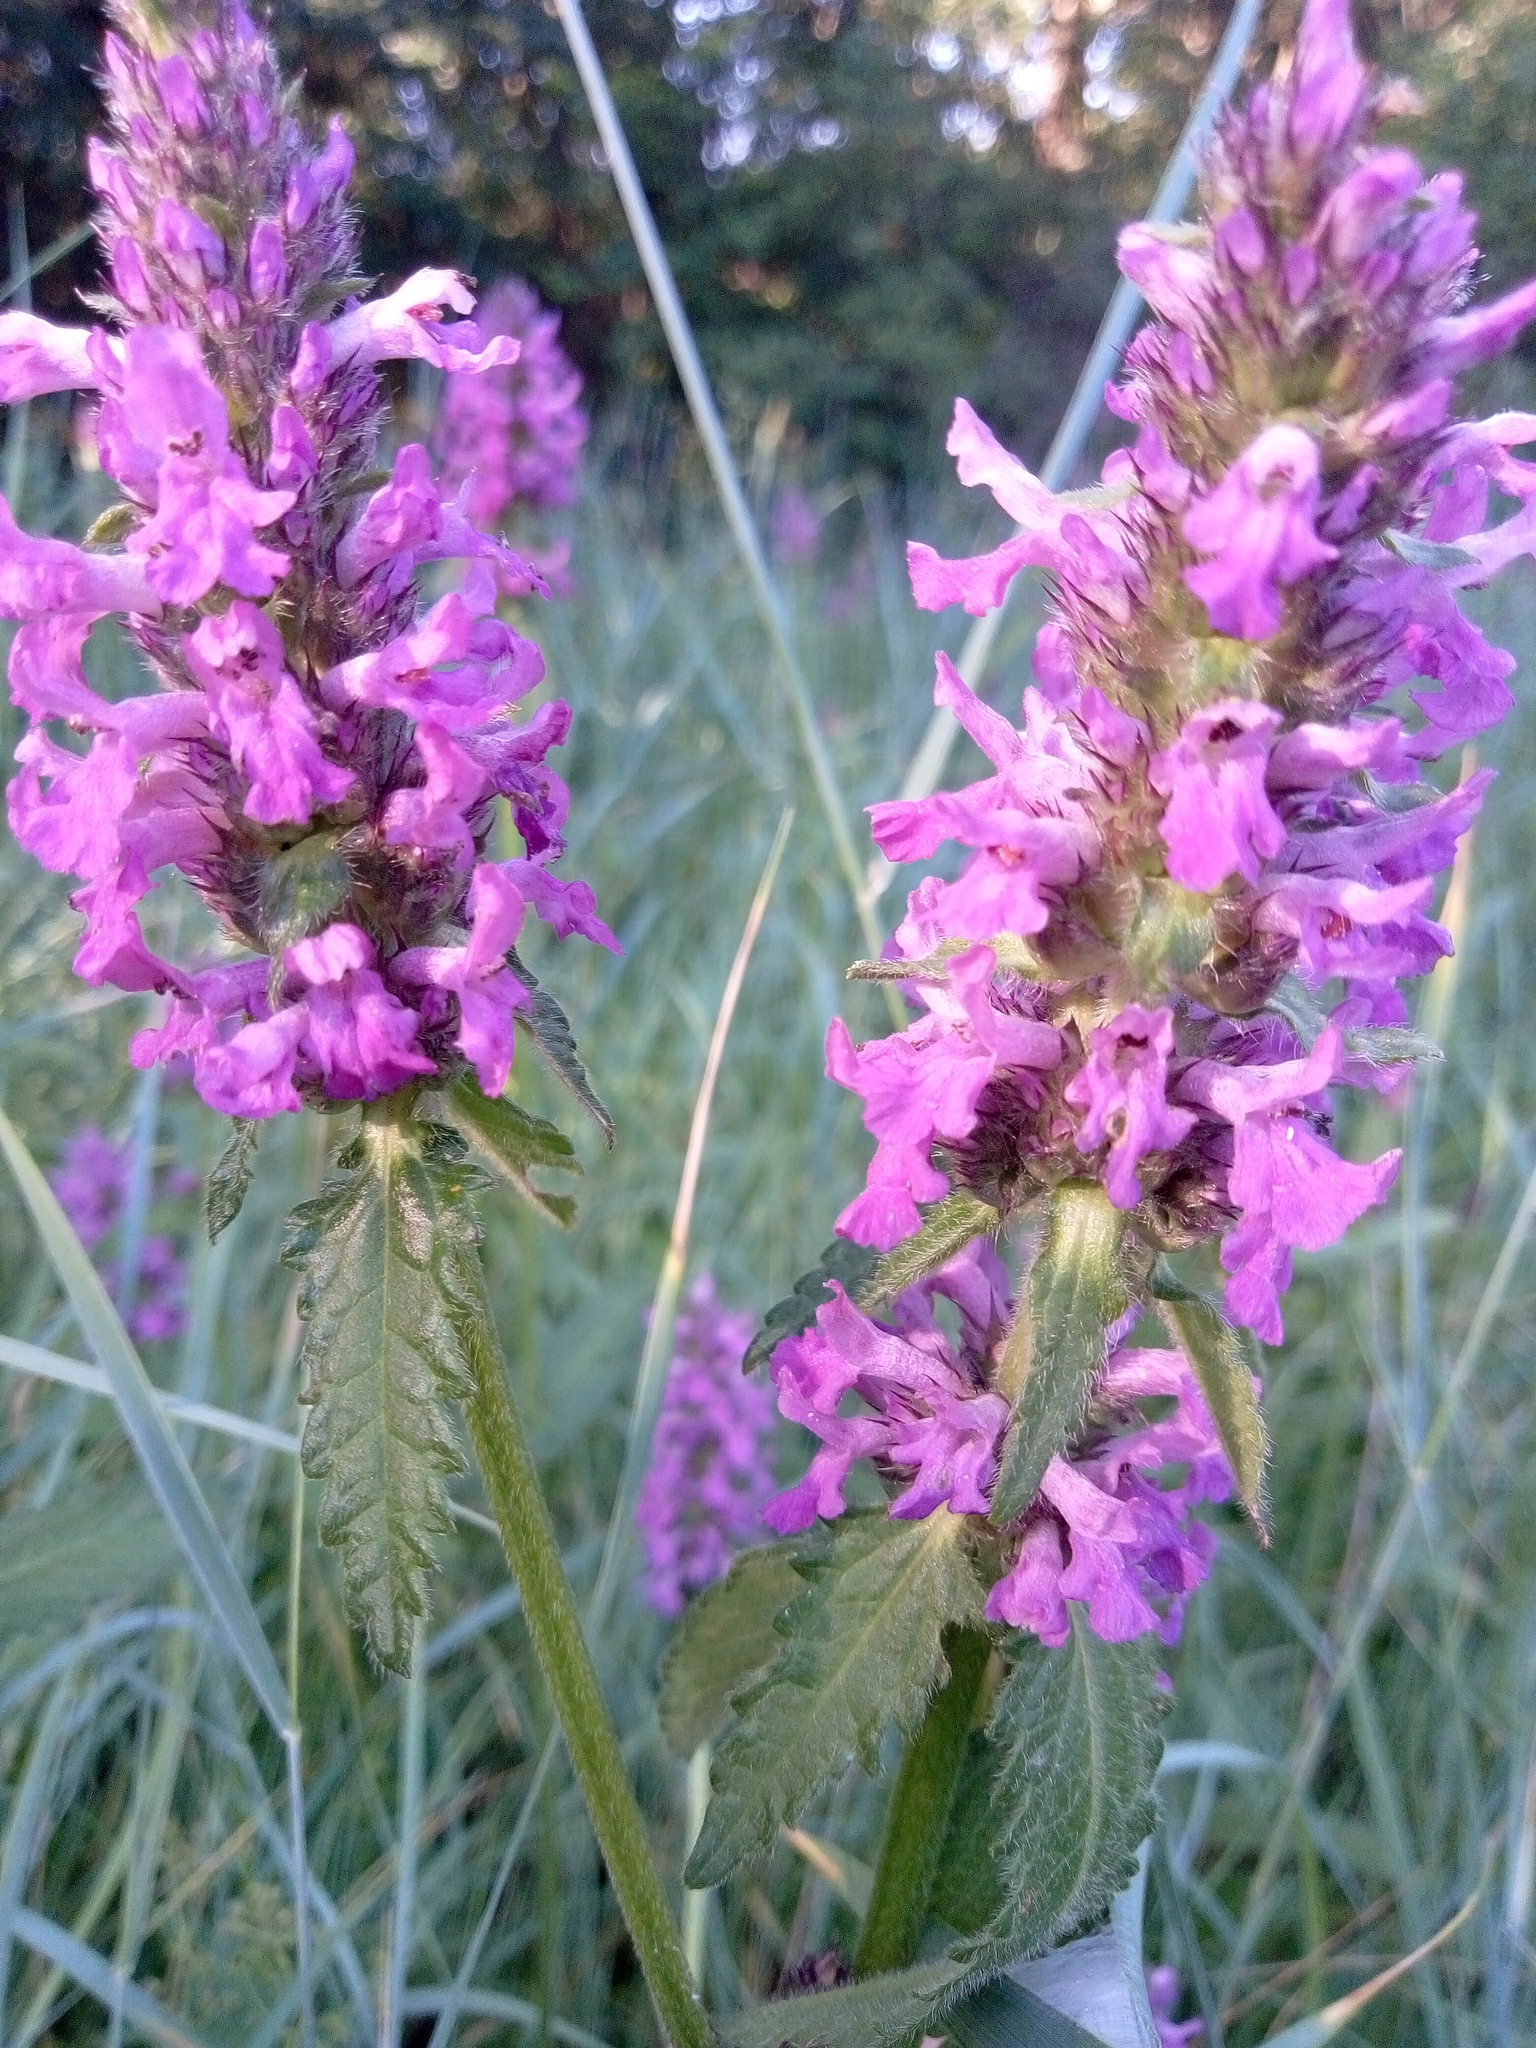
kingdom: Plantae
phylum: Tracheophyta
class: Magnoliopsida
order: Lamiales
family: Lamiaceae
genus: Betonica
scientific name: Betonica officinalis
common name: Bishop's-wort
